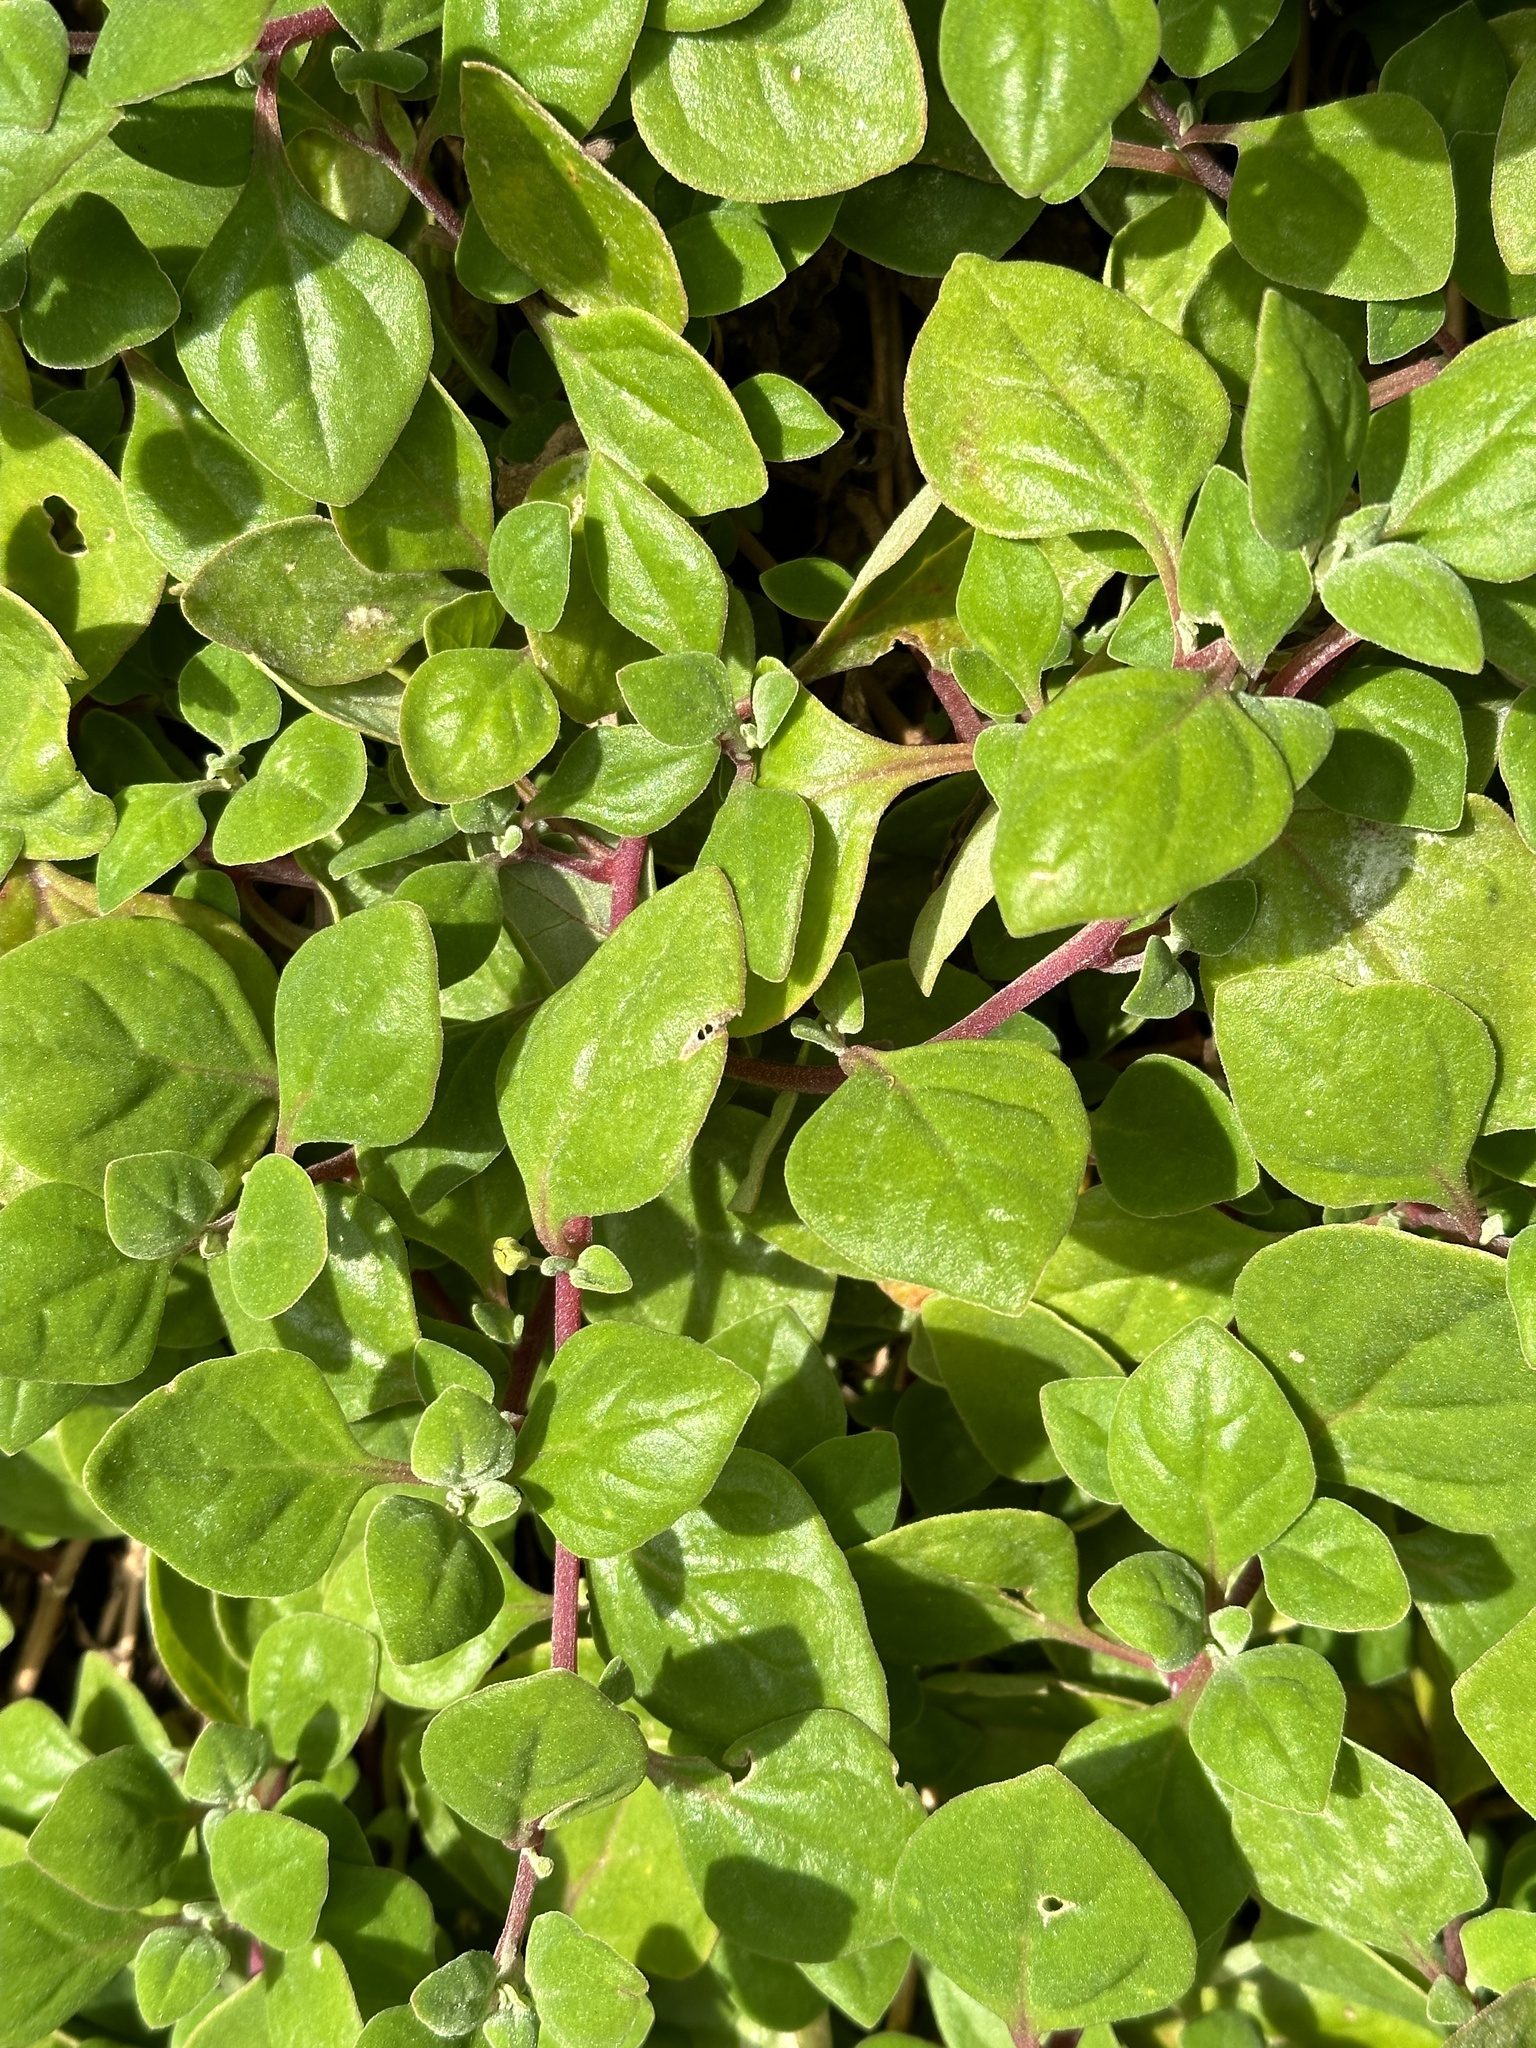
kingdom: Plantae
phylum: Tracheophyta
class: Magnoliopsida
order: Caryophyllales
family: Aizoaceae
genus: Tetragonia
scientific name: Tetragonia implexicoma
